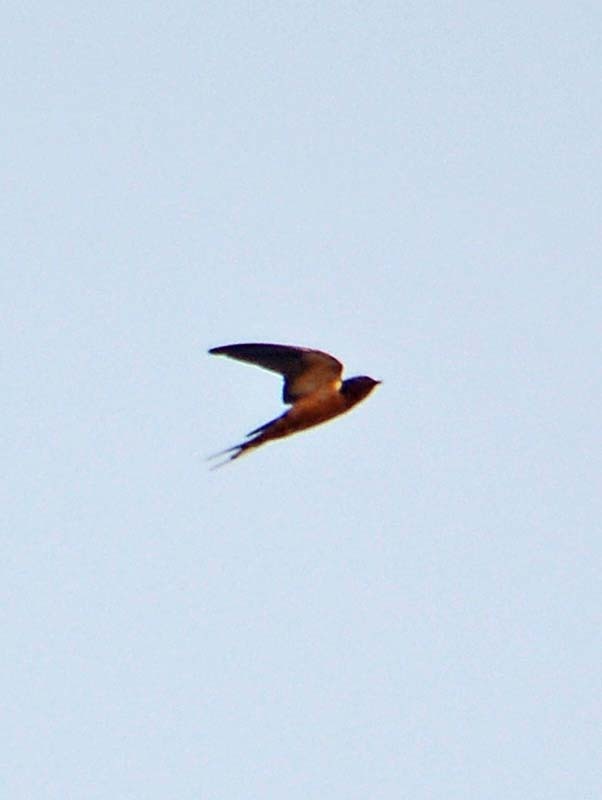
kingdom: Animalia
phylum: Chordata
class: Aves
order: Passeriformes
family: Hirundinidae
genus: Hirundo
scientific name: Hirundo rustica
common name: Barn swallow
